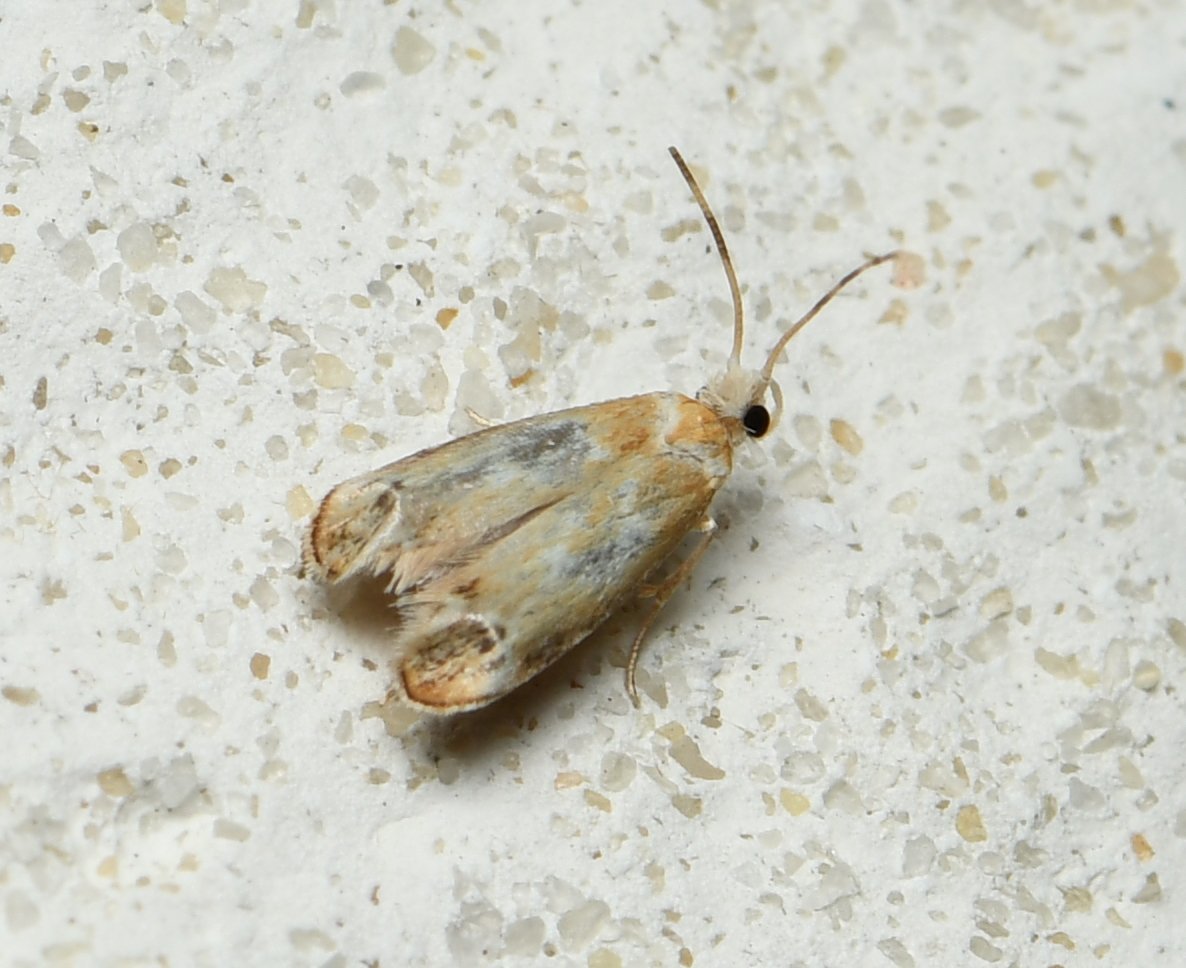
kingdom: Animalia
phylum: Arthropoda
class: Insecta
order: Lepidoptera
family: Dryadaulidae
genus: Dryadaula
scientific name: Dryadaula terpsichorella
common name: Dancing moth
